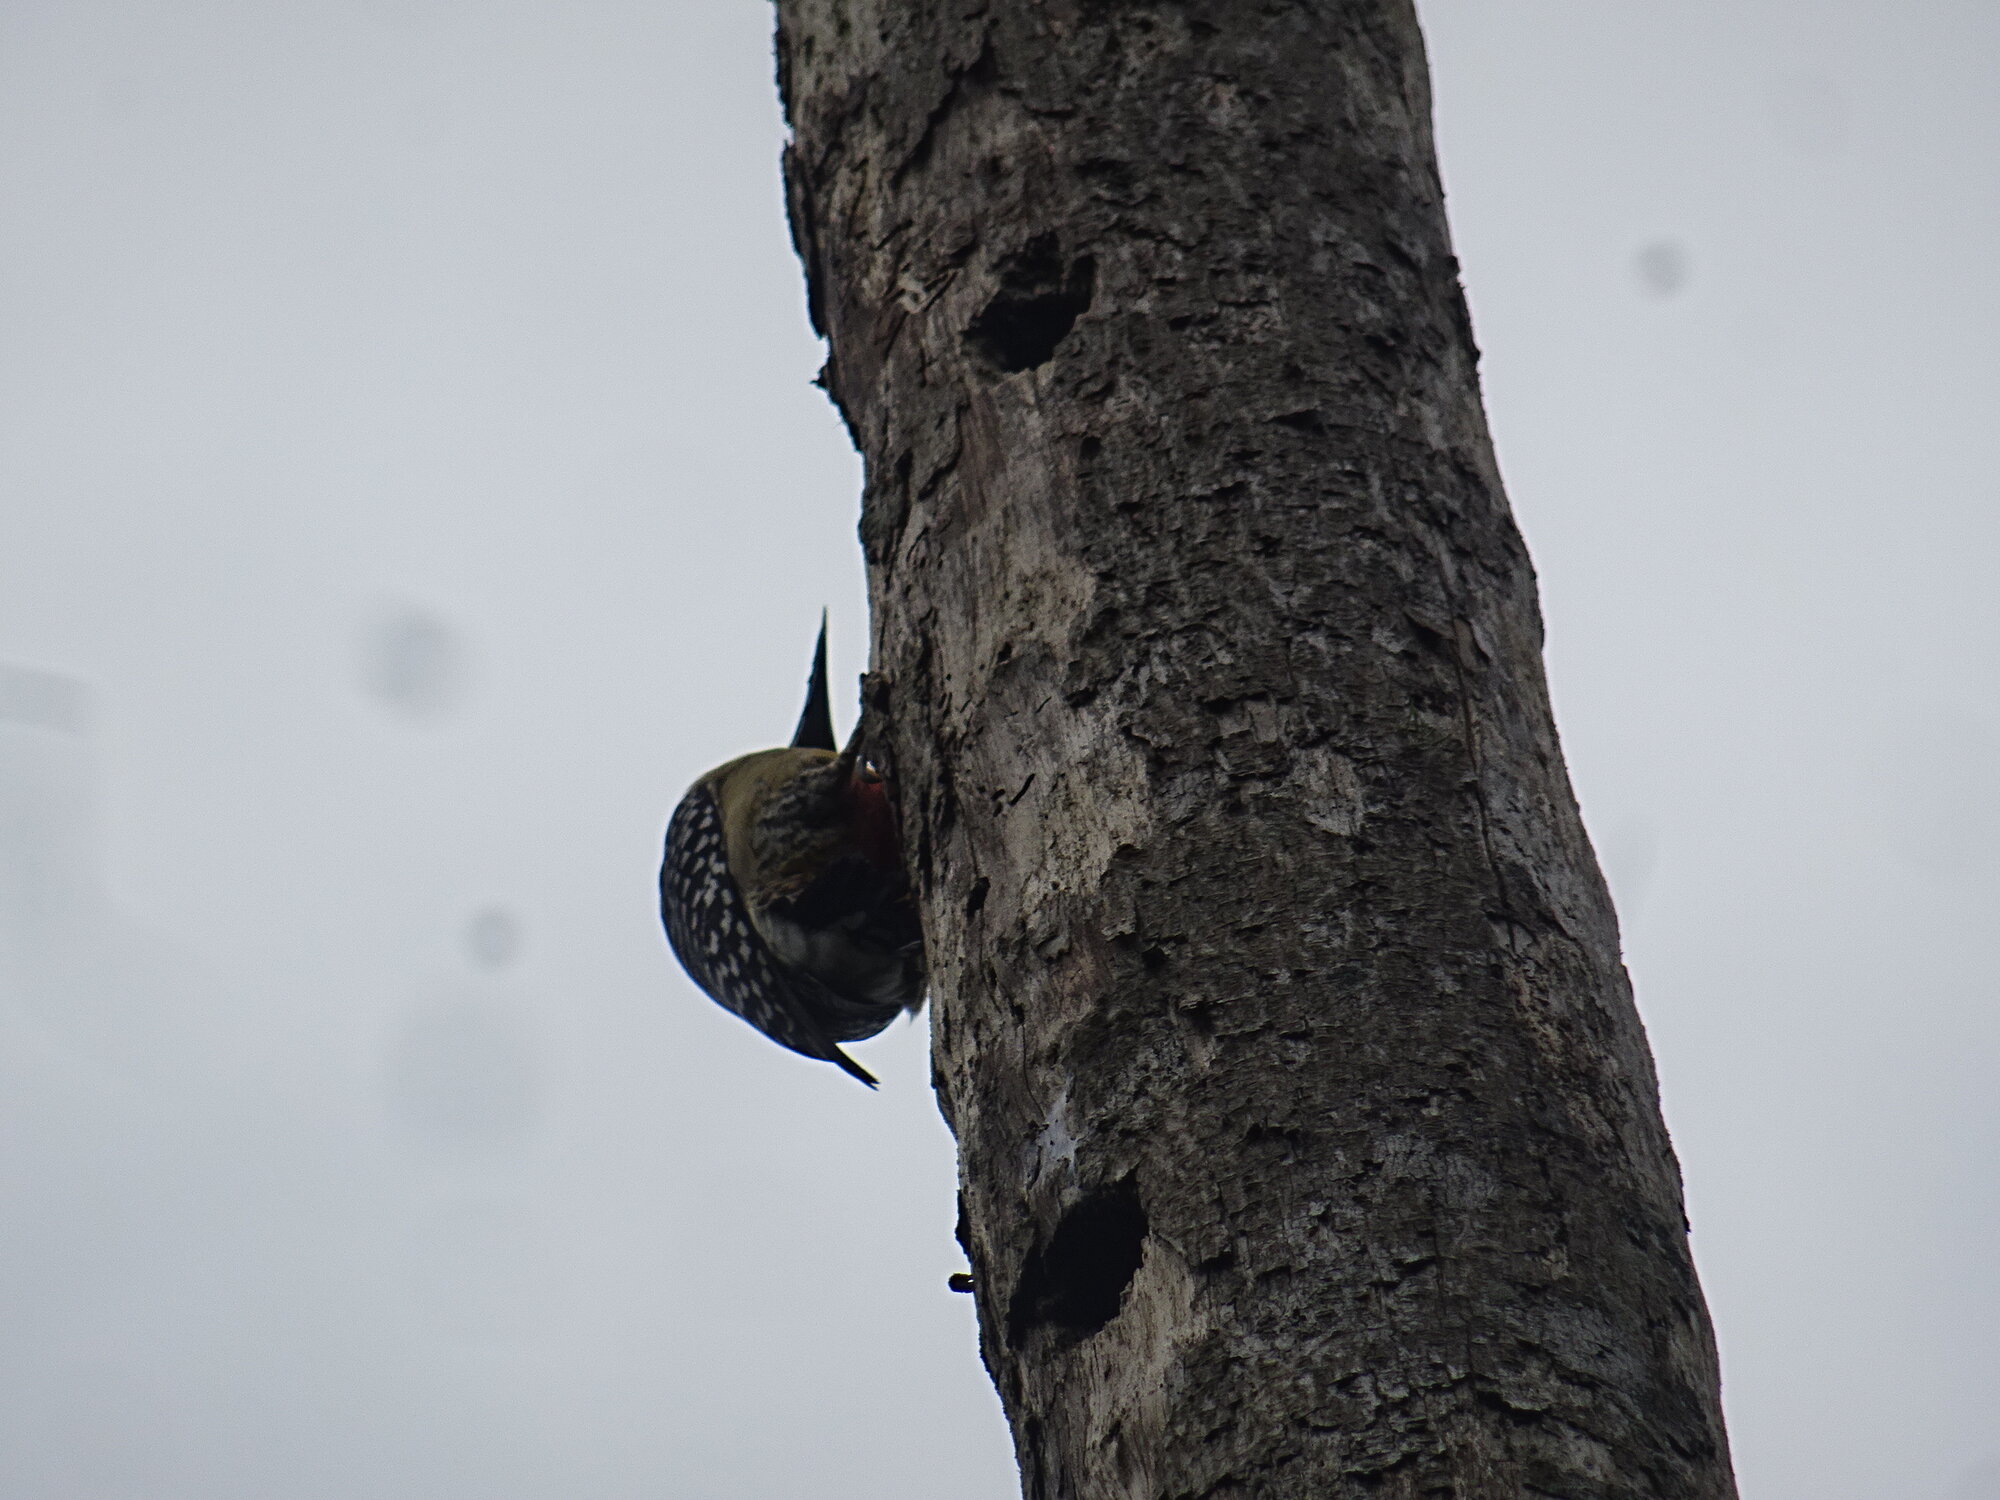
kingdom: Animalia
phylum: Chordata
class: Aves
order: Piciformes
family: Picidae
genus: Melanerpes
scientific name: Melanerpes rubricapillus
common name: Red-crowned woodpecker
